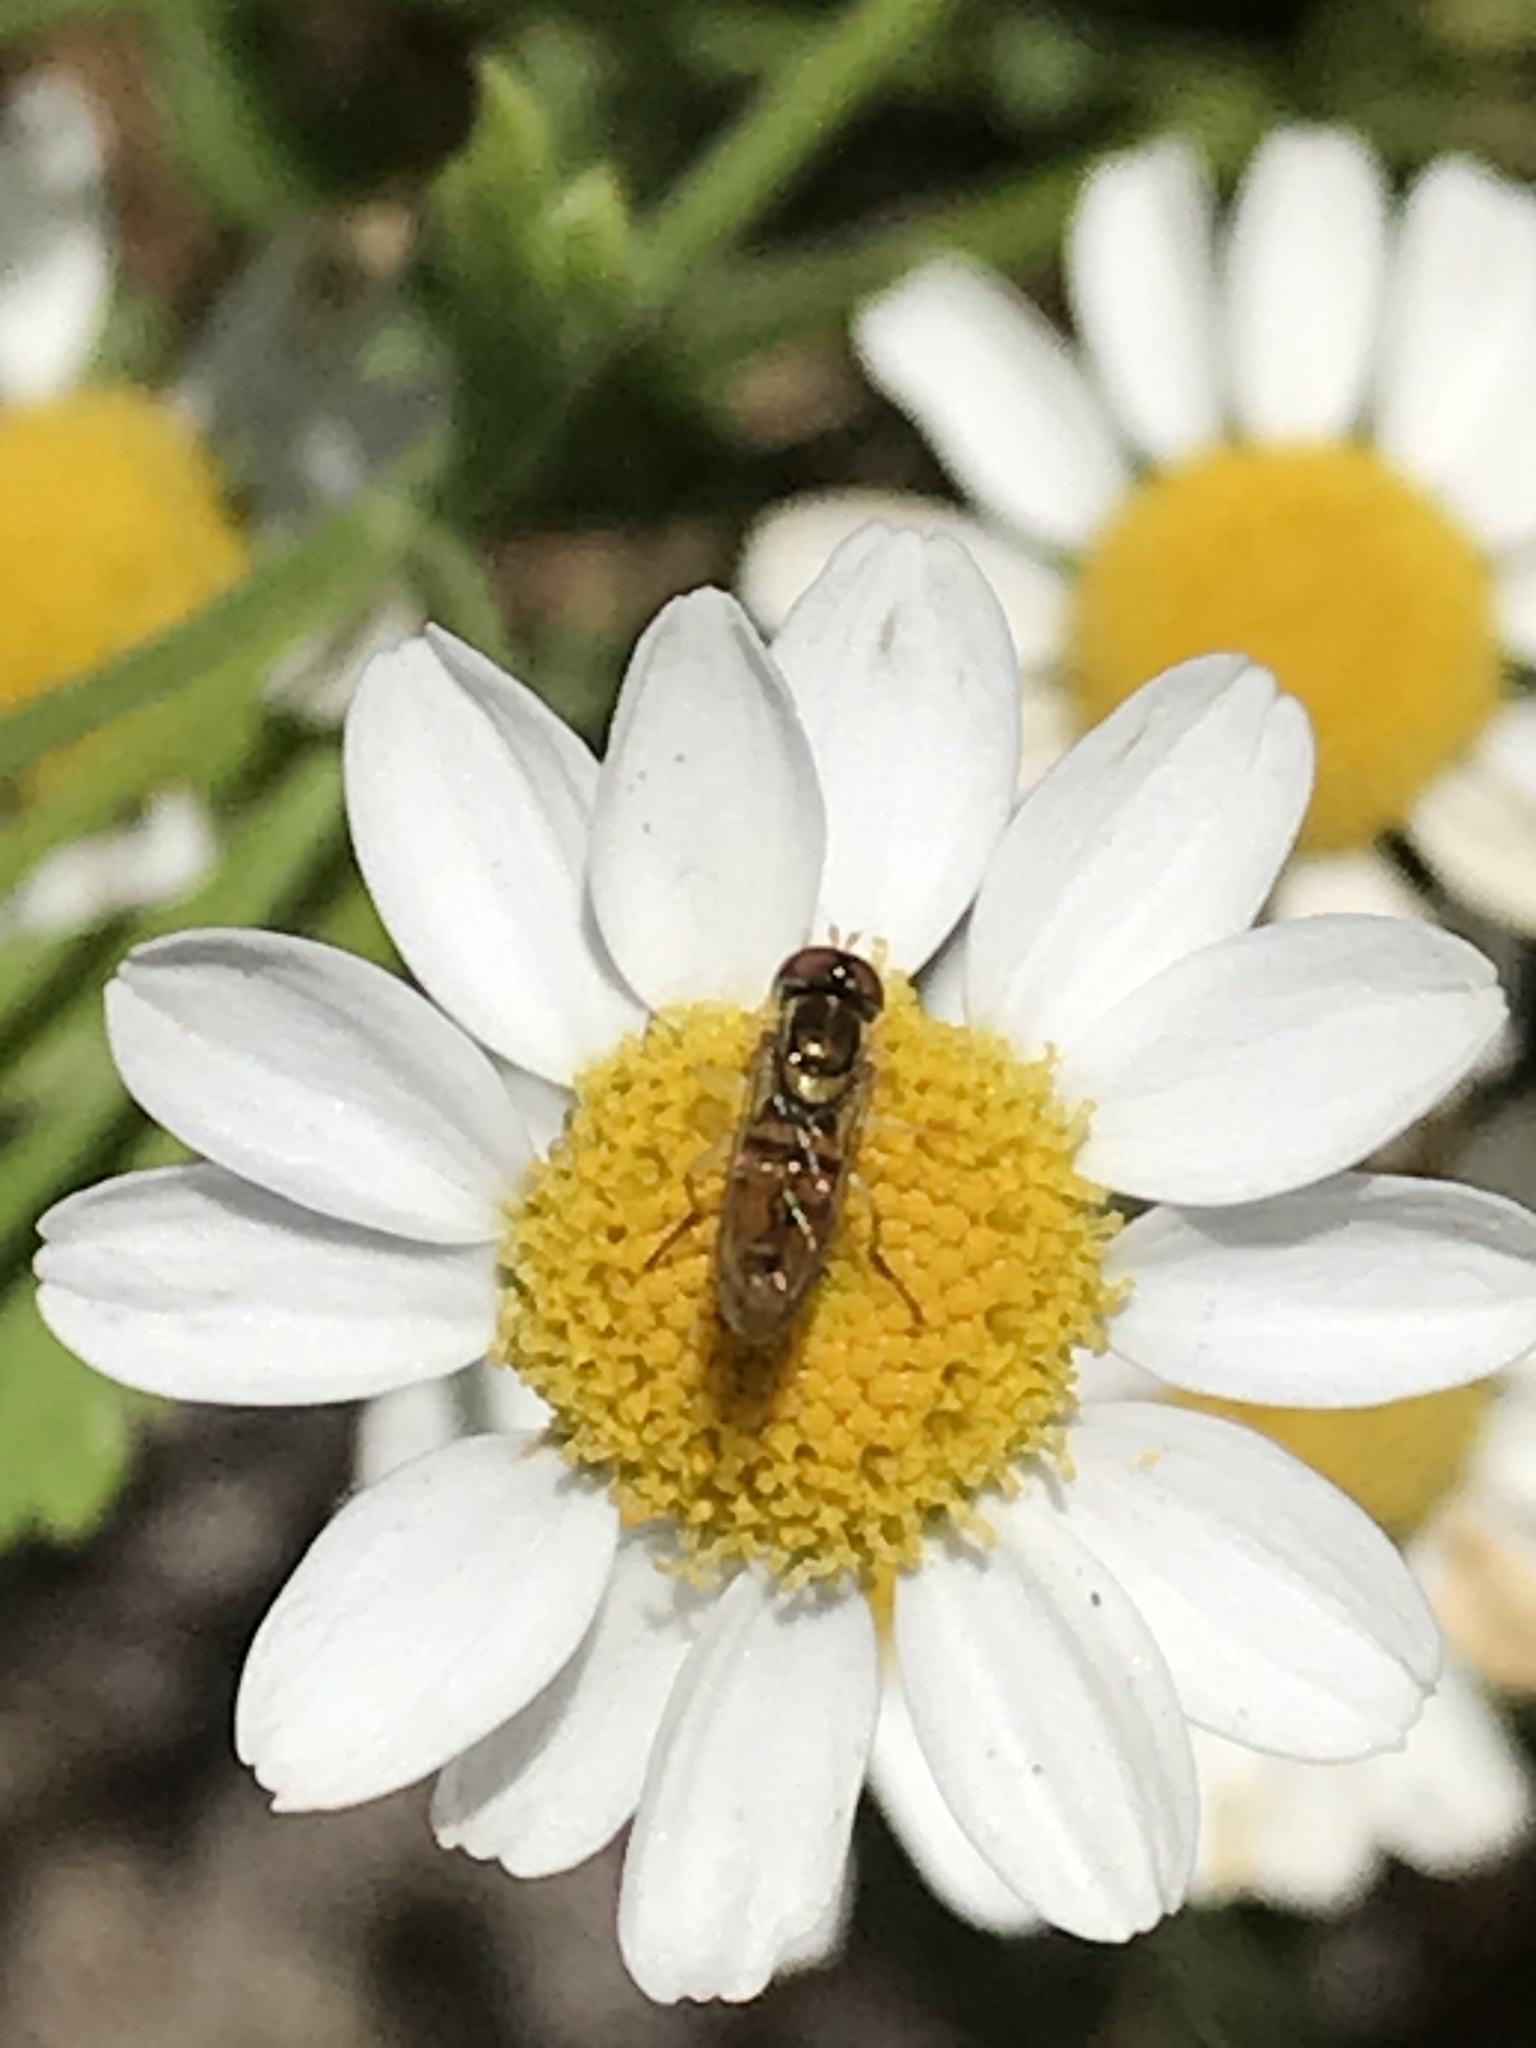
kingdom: Animalia
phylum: Arthropoda
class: Insecta
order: Diptera
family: Syrphidae
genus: Toxomerus
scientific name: Toxomerus marginatus
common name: Syrphid fly
